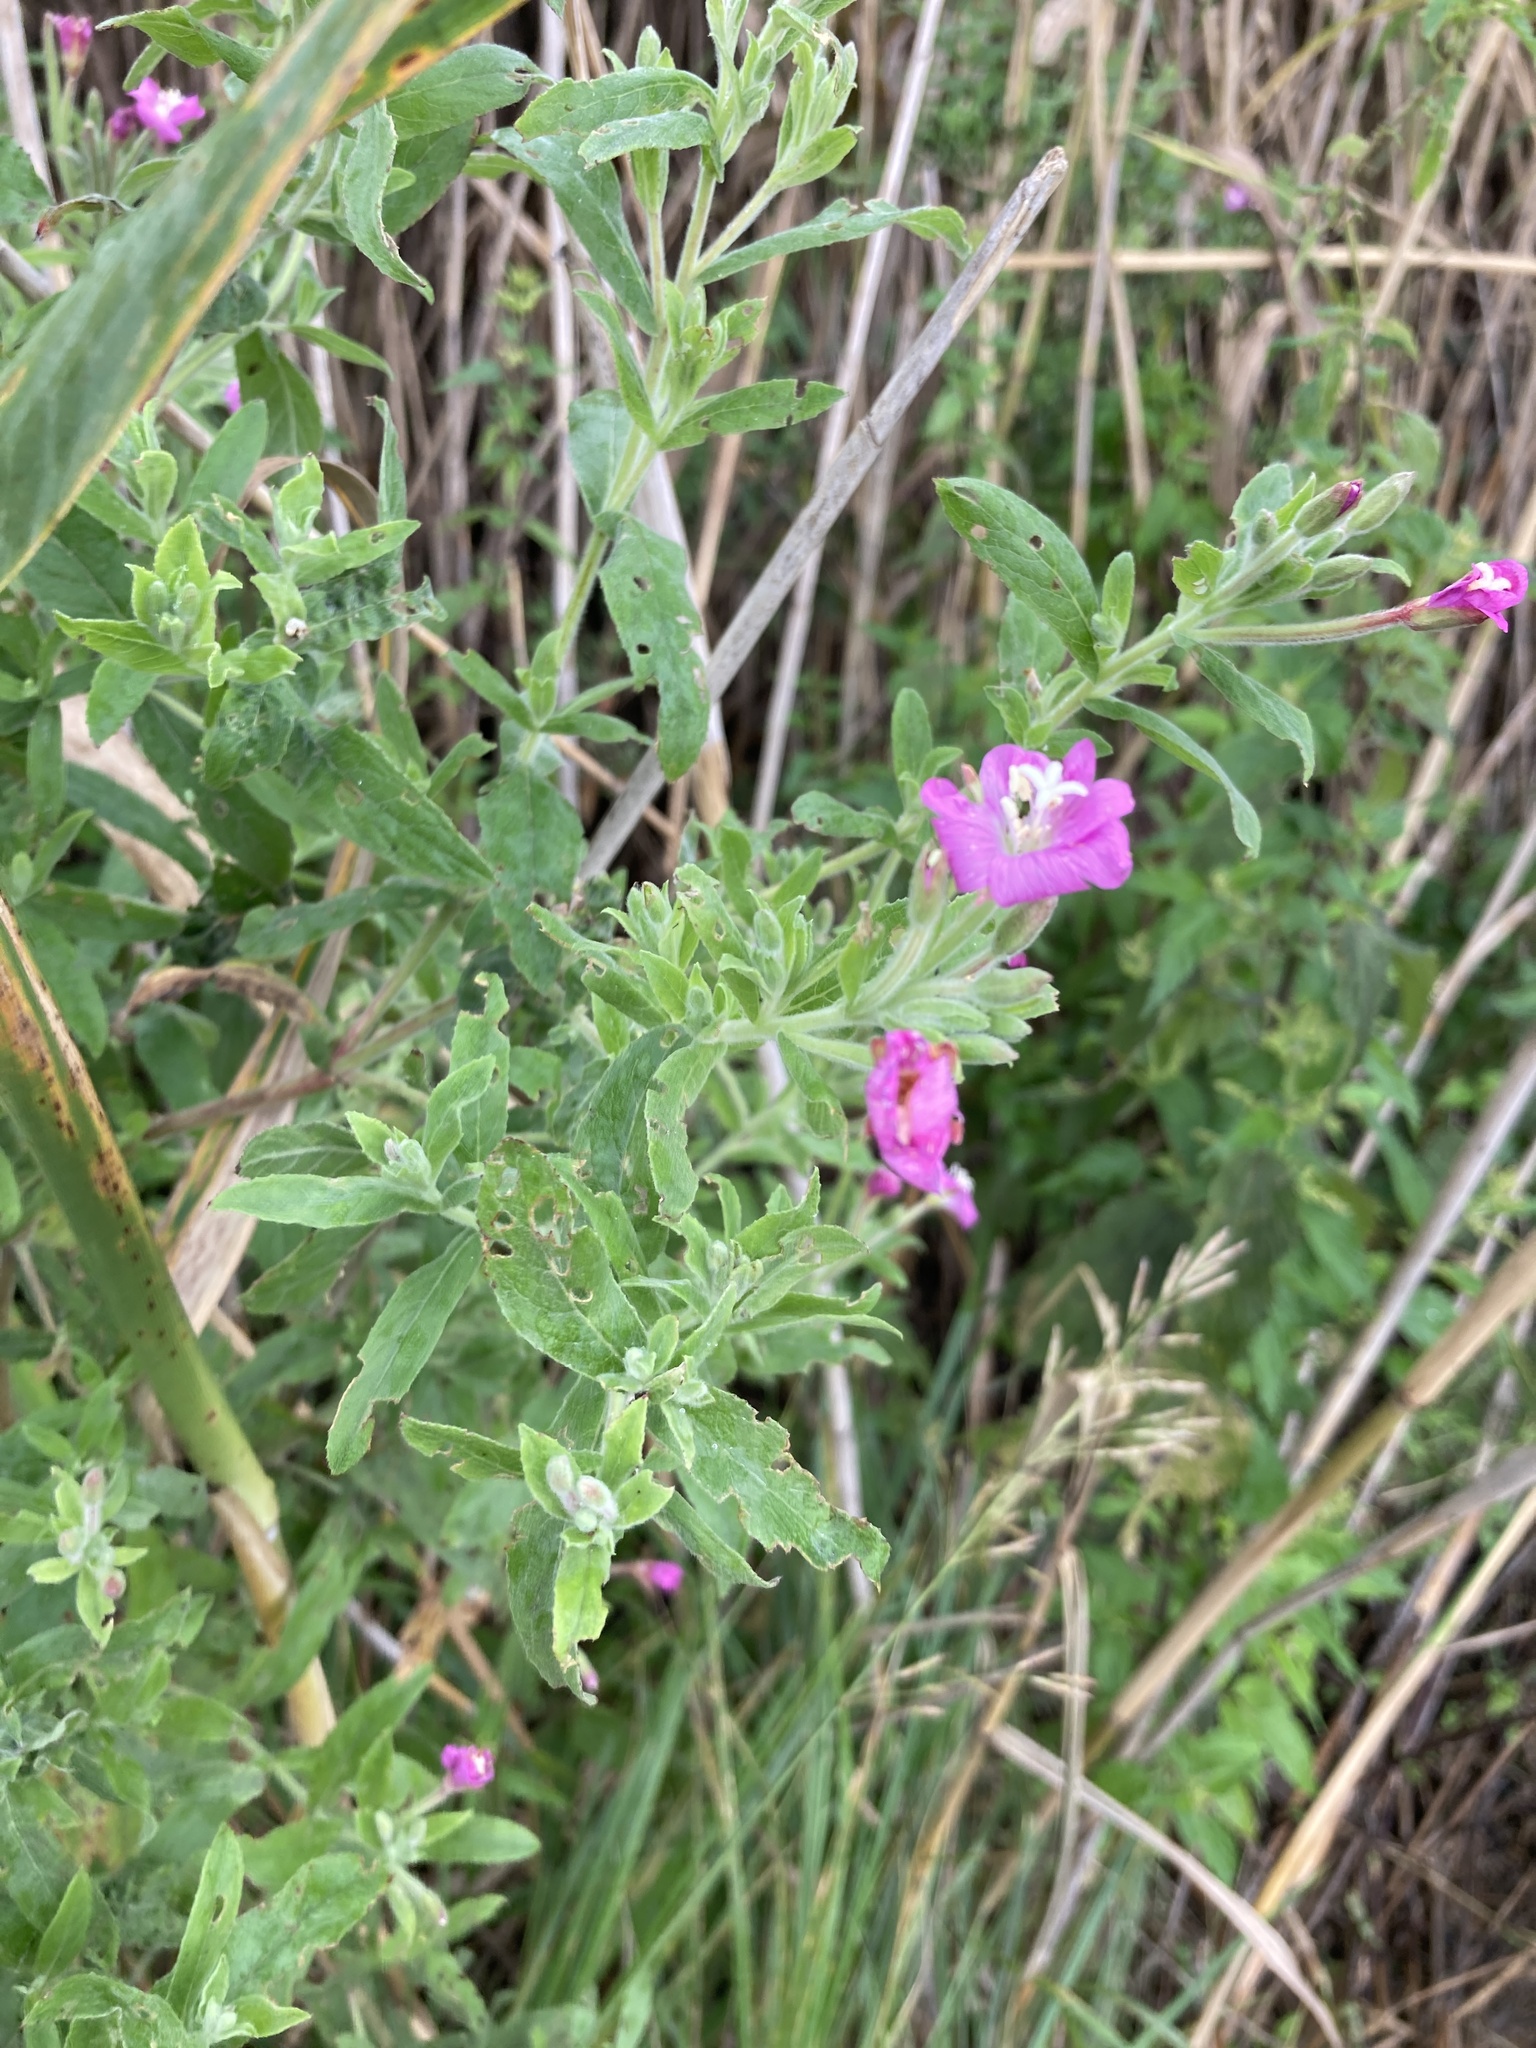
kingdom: Plantae
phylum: Tracheophyta
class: Magnoliopsida
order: Myrtales
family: Onagraceae
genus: Epilobium
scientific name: Epilobium hirsutum
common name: Great willowherb
